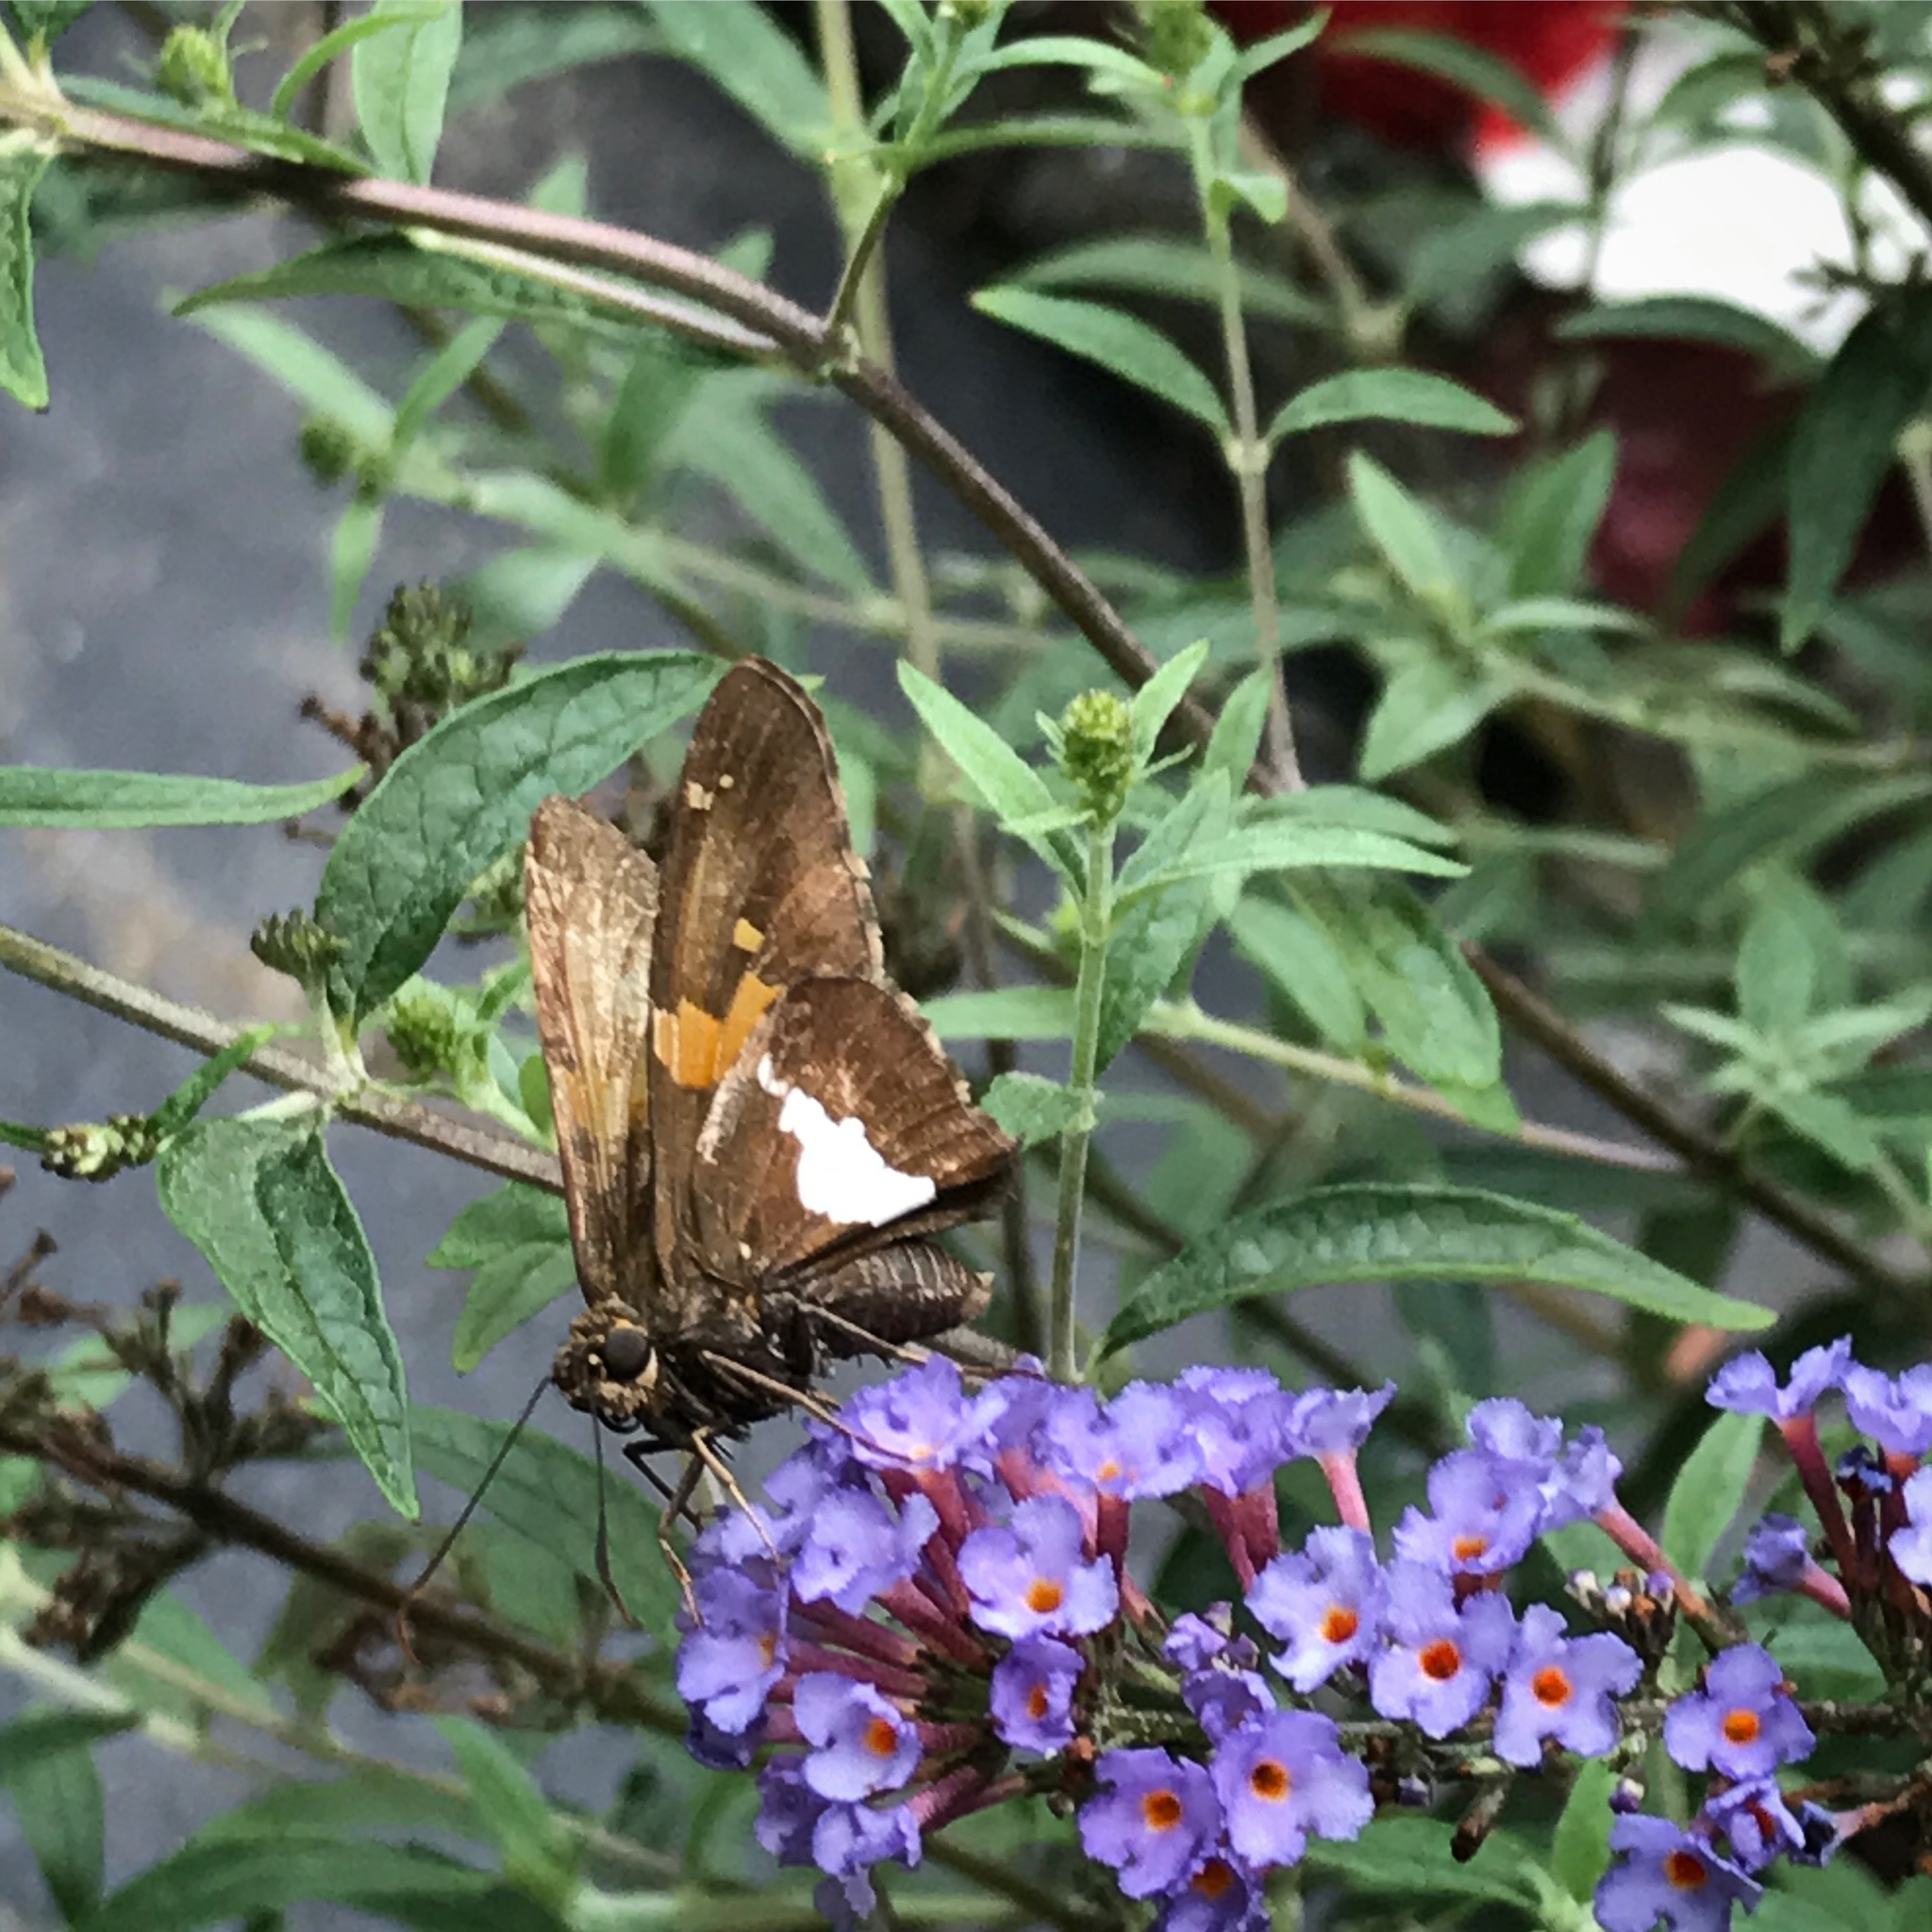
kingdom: Animalia
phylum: Arthropoda
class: Insecta
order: Lepidoptera
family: Hesperiidae
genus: Epargyreus
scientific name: Epargyreus clarus
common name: Silver-spotted skipper
